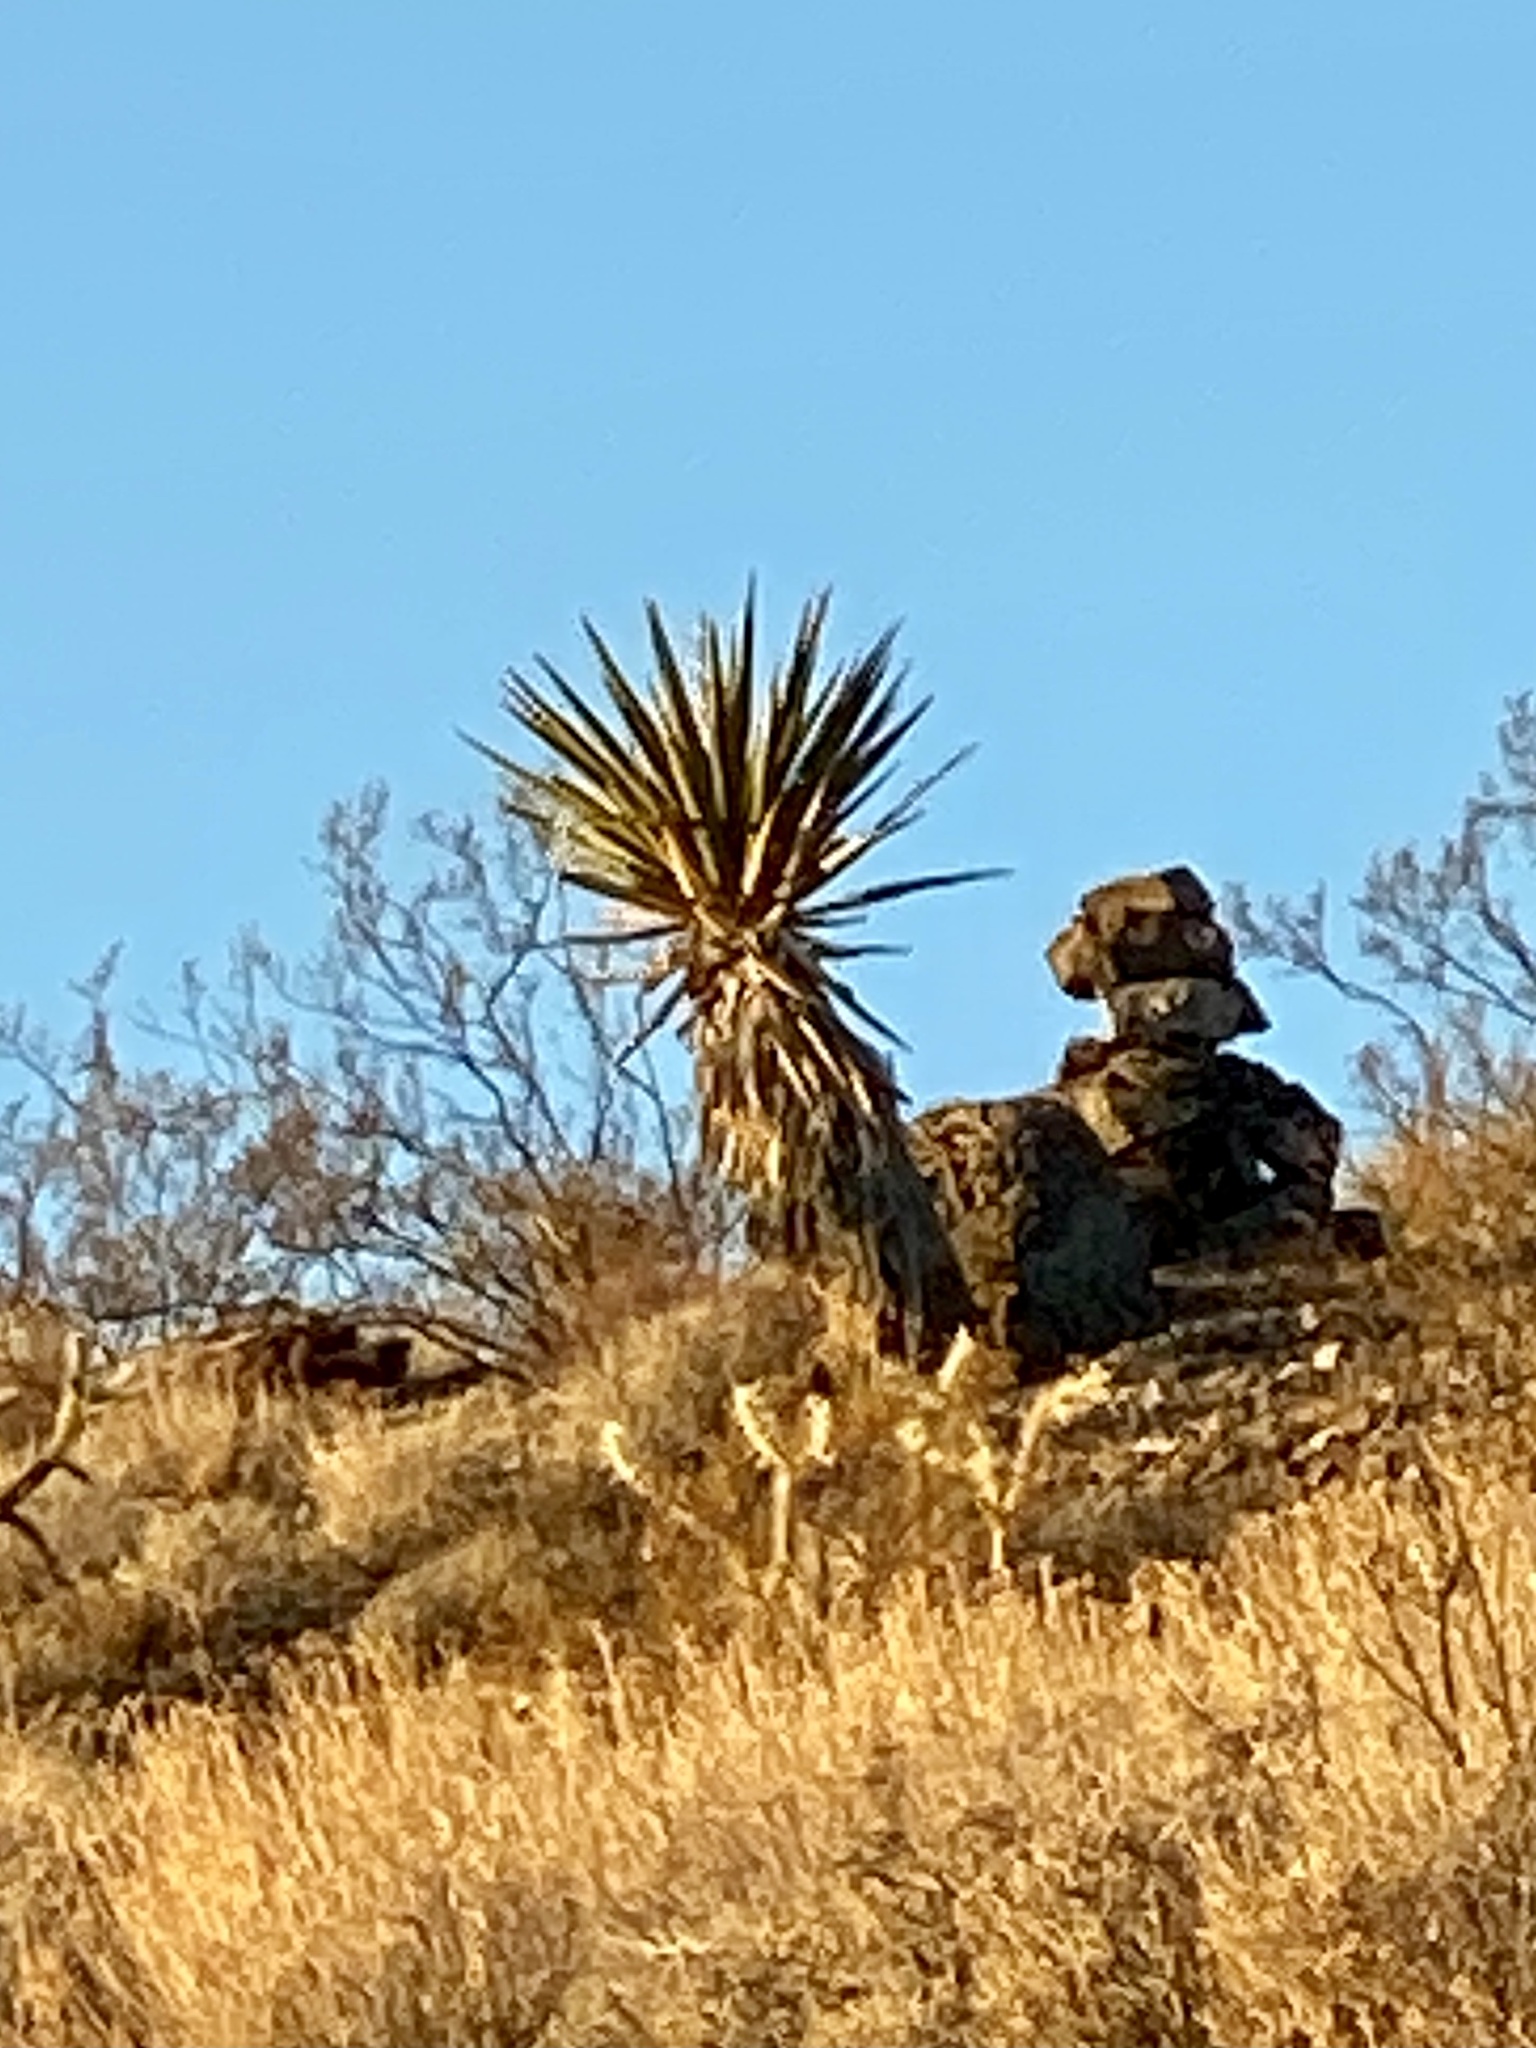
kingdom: Plantae
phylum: Tracheophyta
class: Liliopsida
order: Asparagales
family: Asparagaceae
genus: Yucca
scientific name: Yucca schidigera
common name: Mojave yucca
